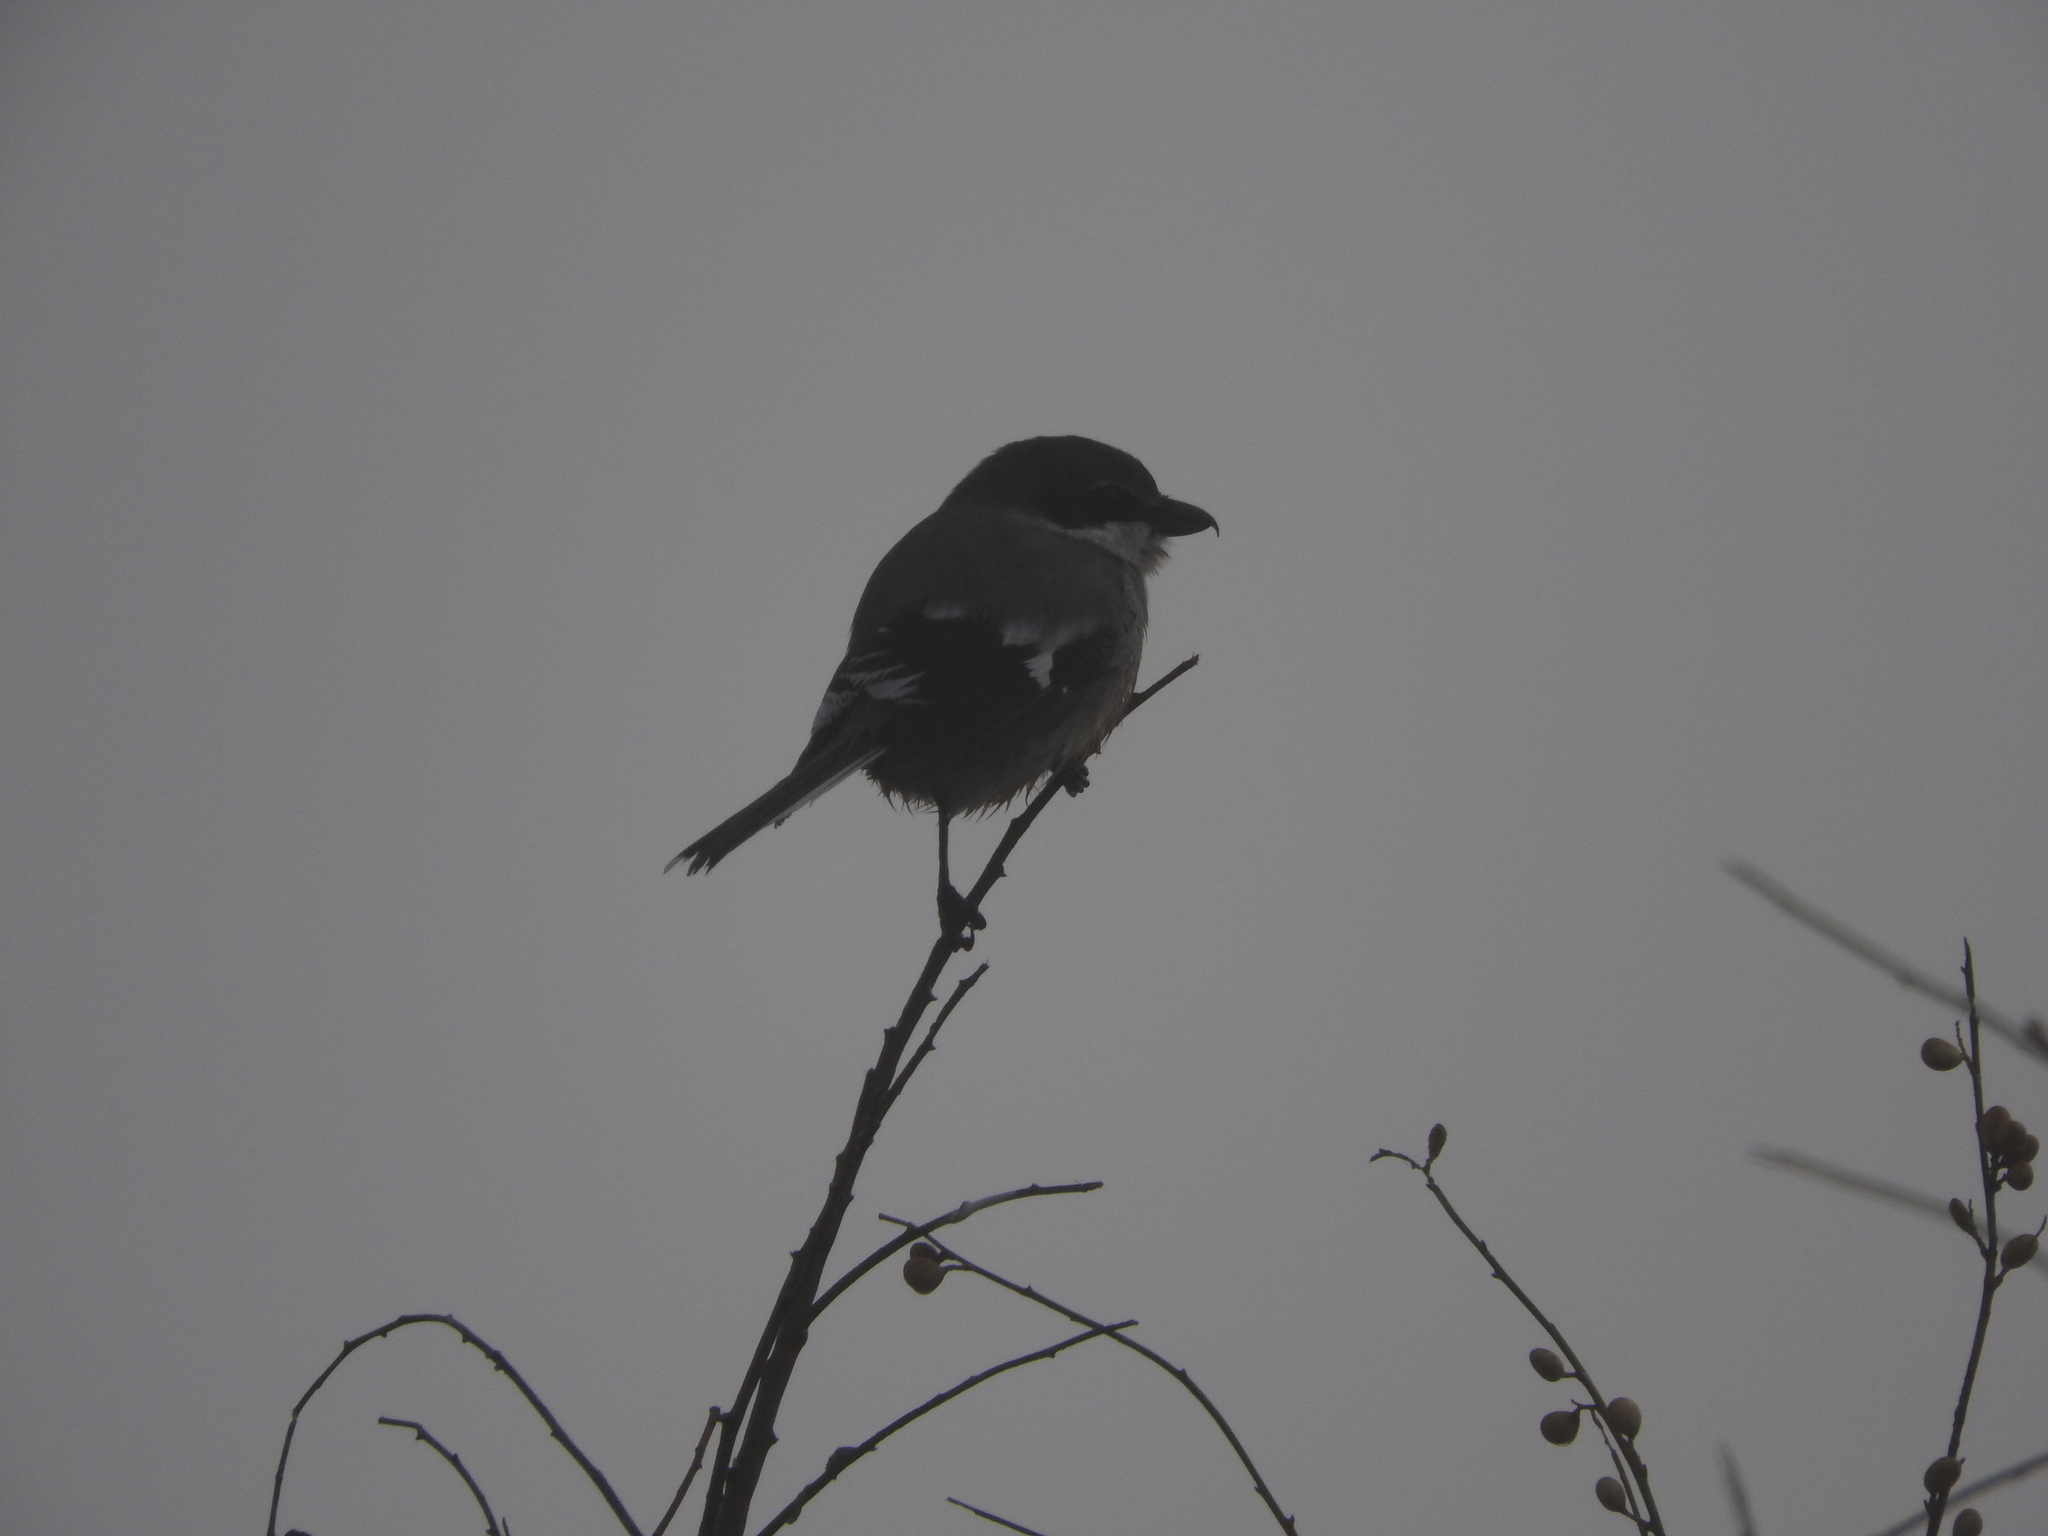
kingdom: Animalia
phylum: Chordata
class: Aves
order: Passeriformes
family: Laniidae
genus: Lanius
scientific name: Lanius meridionalis
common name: Iberian grey shrike
